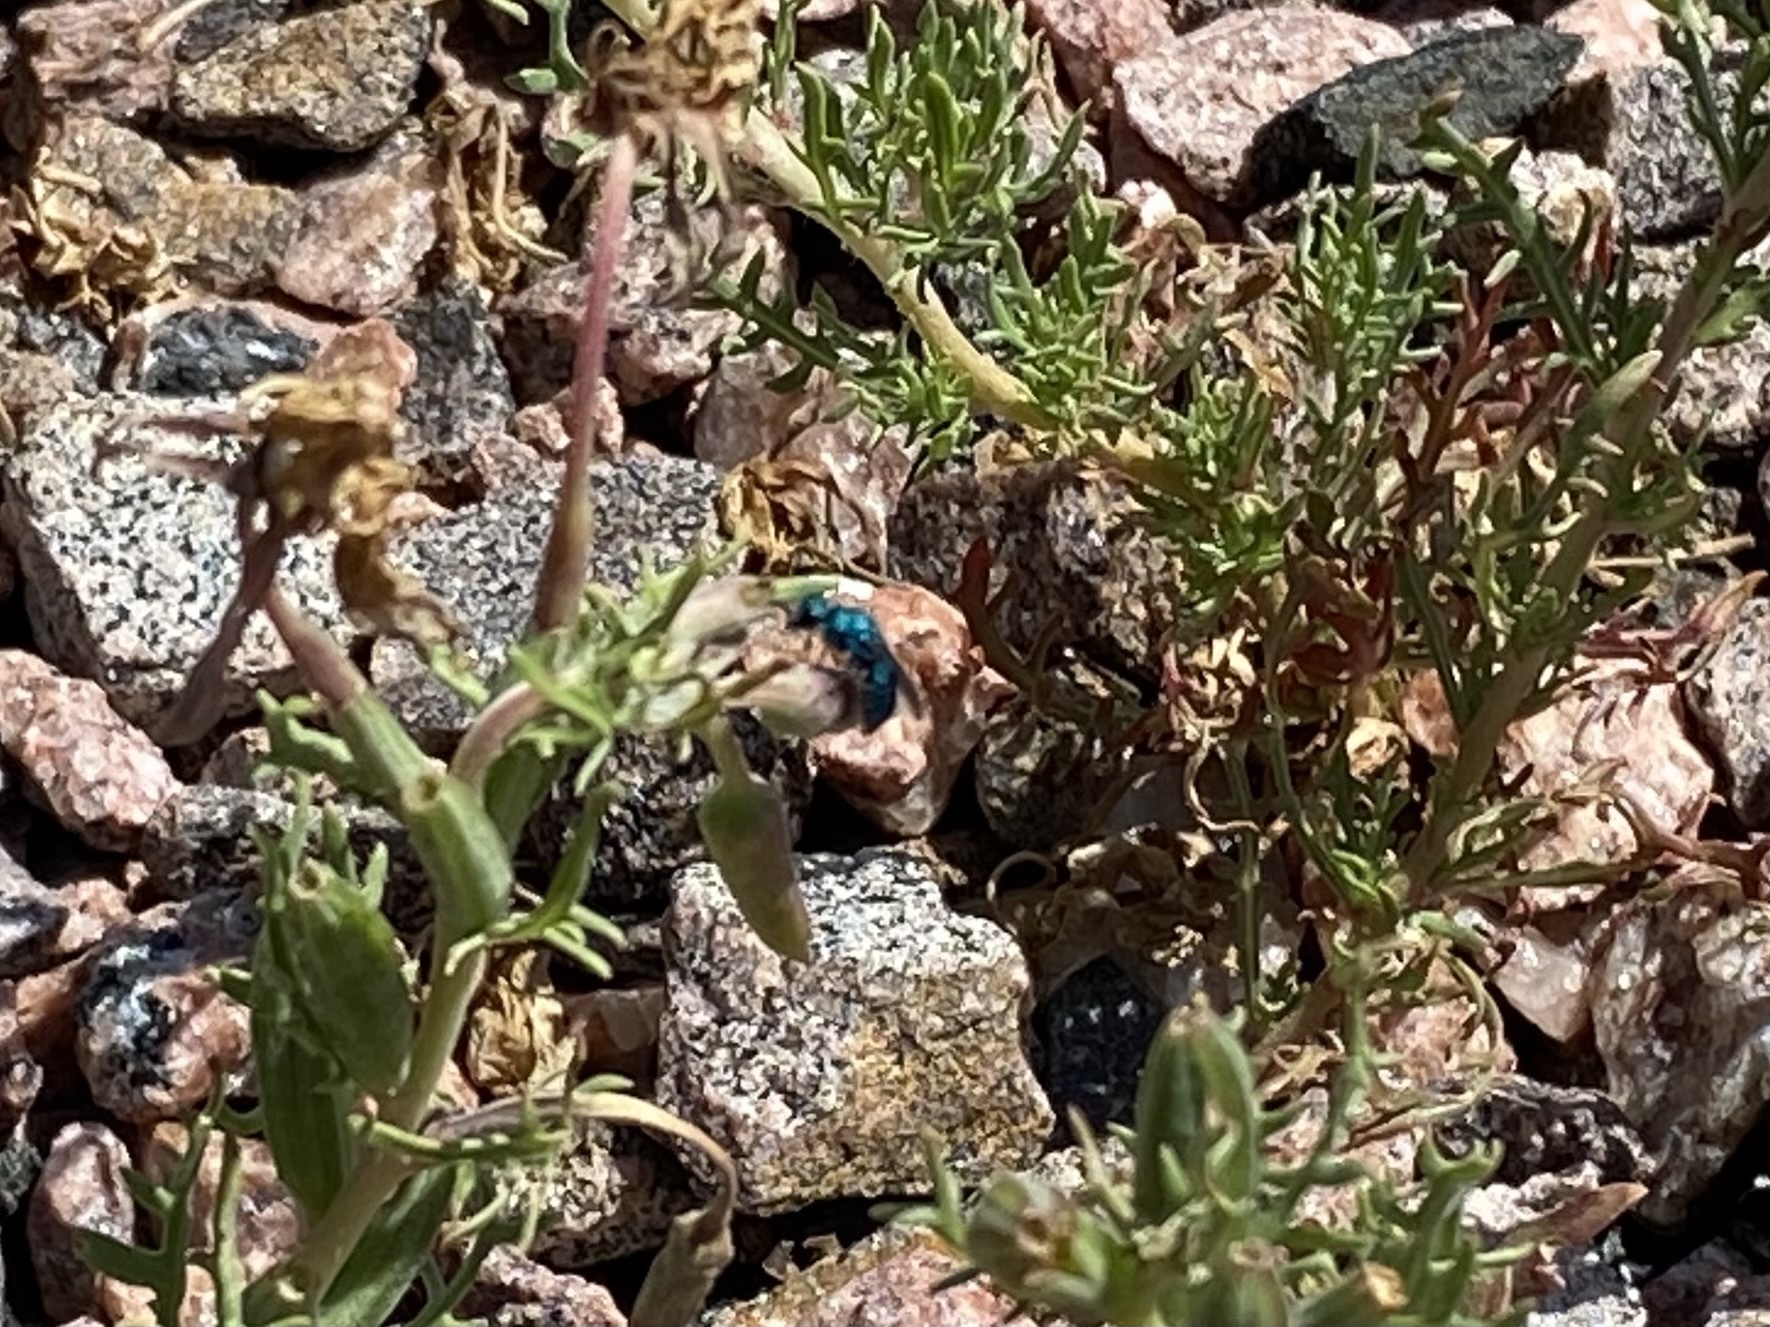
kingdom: Animalia
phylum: Arthropoda
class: Insecta
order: Hymenoptera
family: Chrysididae
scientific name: Chrysididae
